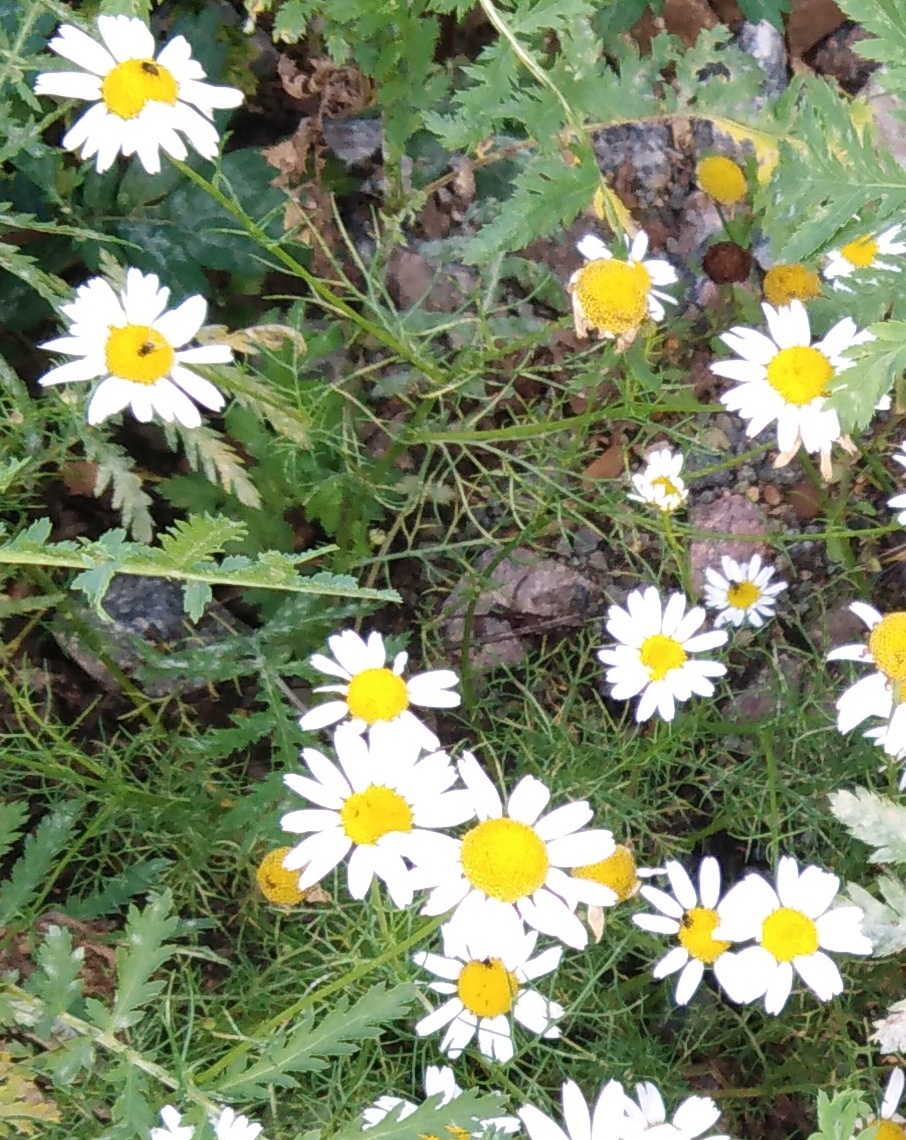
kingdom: Plantae
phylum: Tracheophyta
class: Magnoliopsida
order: Asterales
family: Asteraceae
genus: Tripleurospermum
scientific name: Tripleurospermum inodorum
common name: Scentless mayweed
